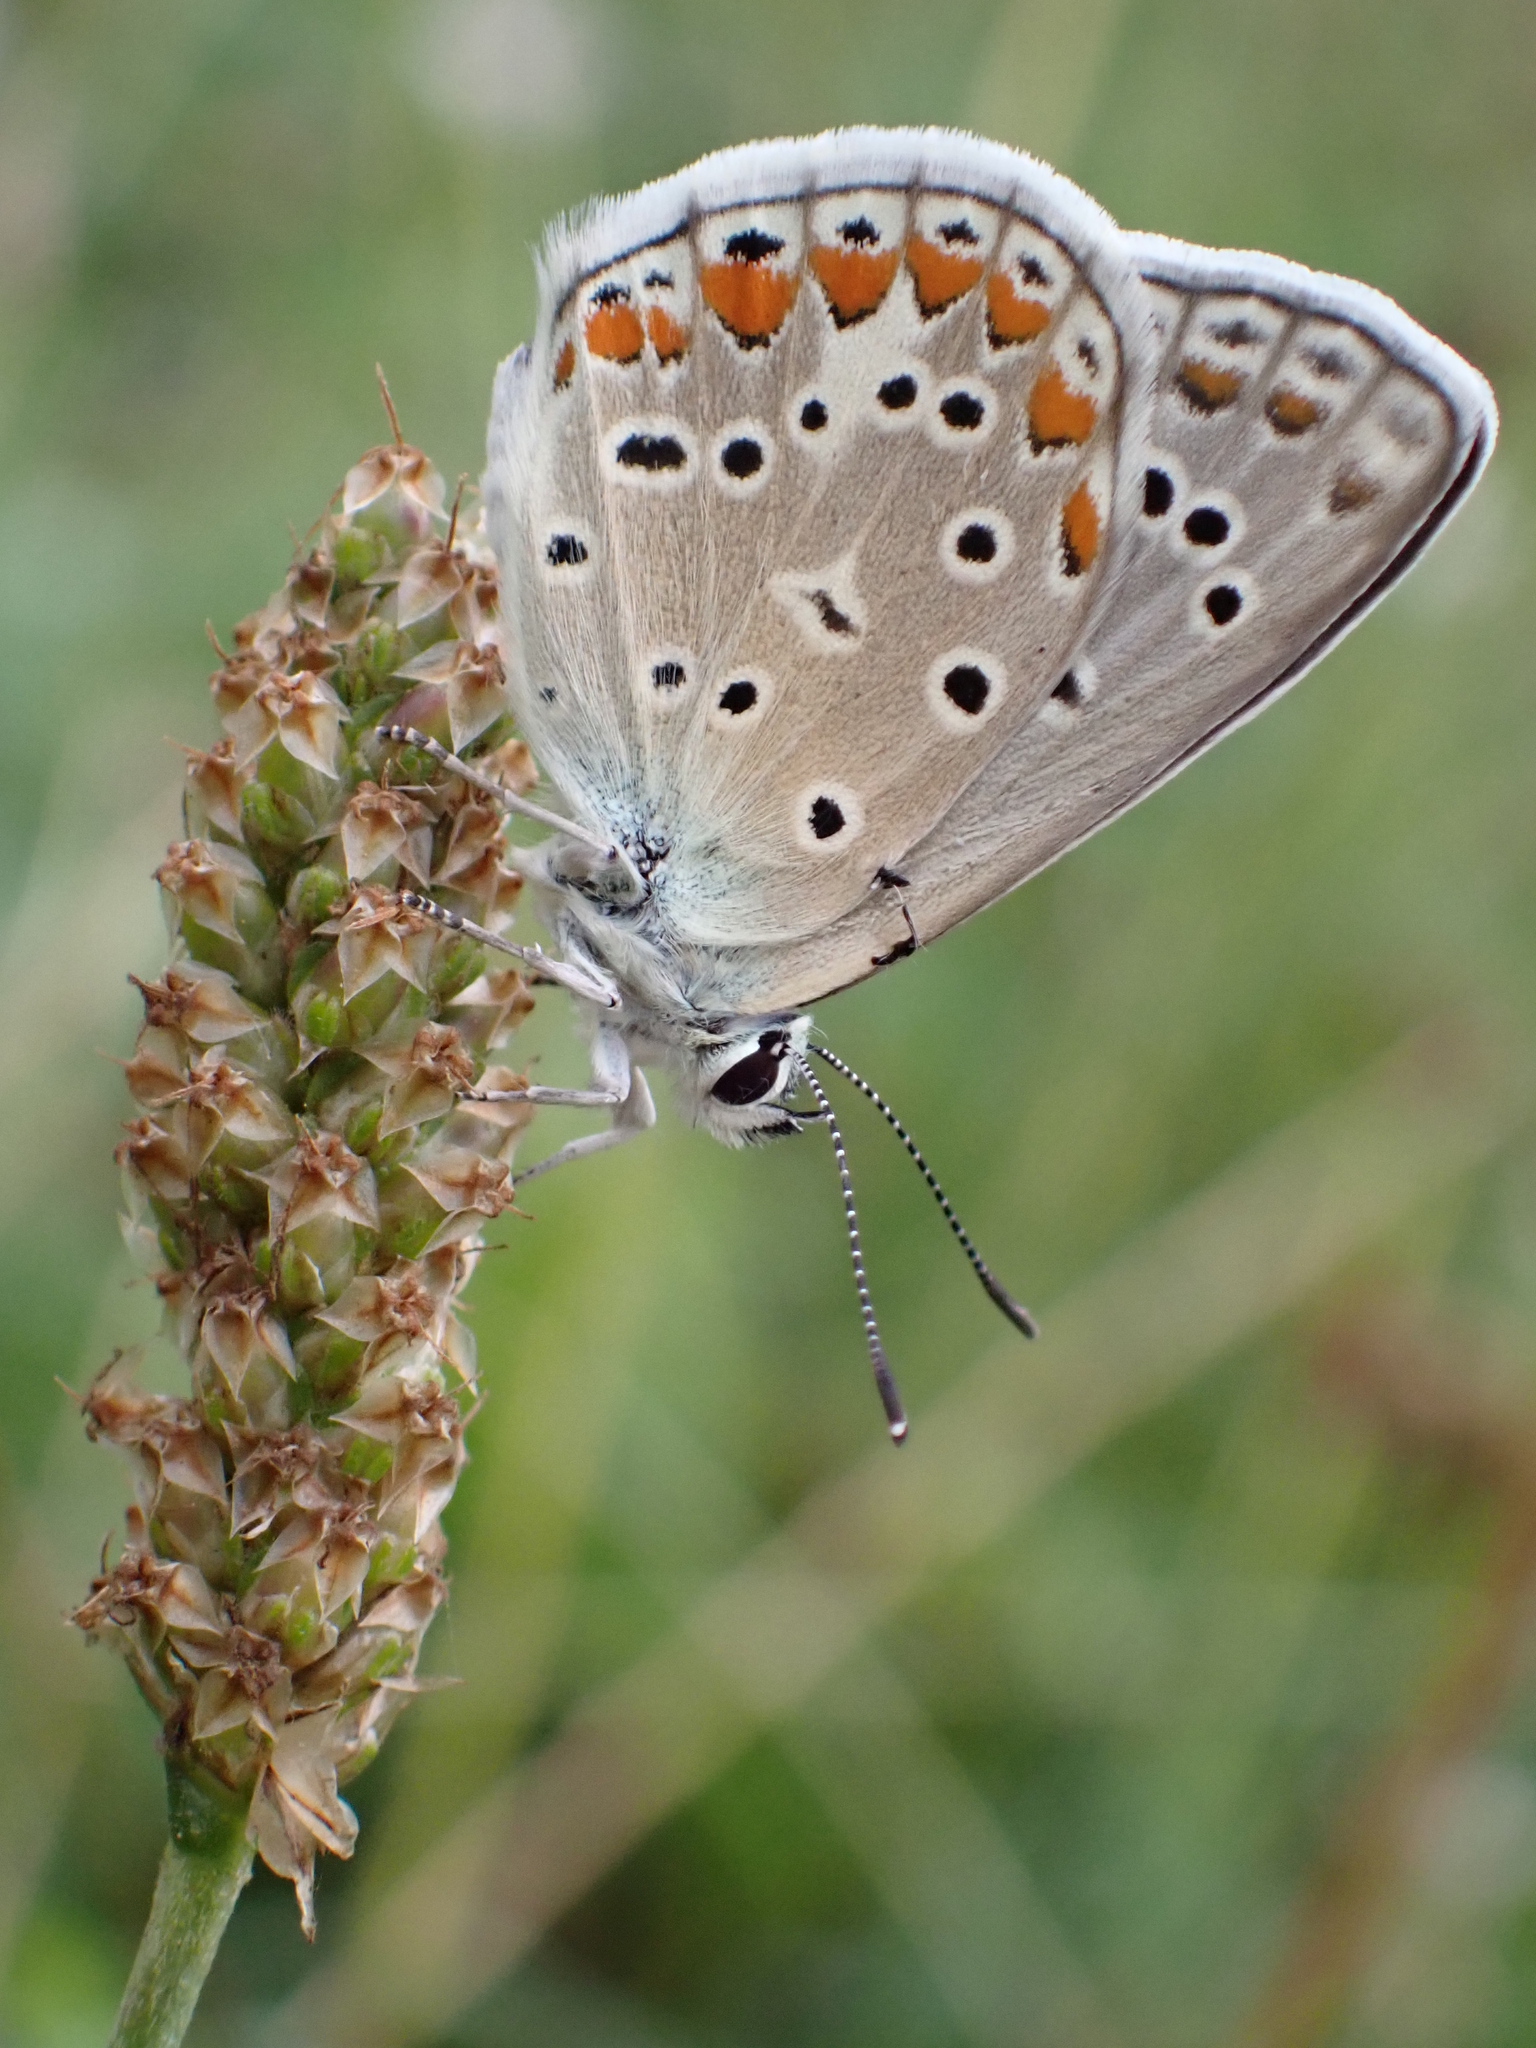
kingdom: Animalia
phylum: Arthropoda
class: Insecta
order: Lepidoptera
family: Lycaenidae
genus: Polyommatus
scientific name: Polyommatus icarus
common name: Common blue
